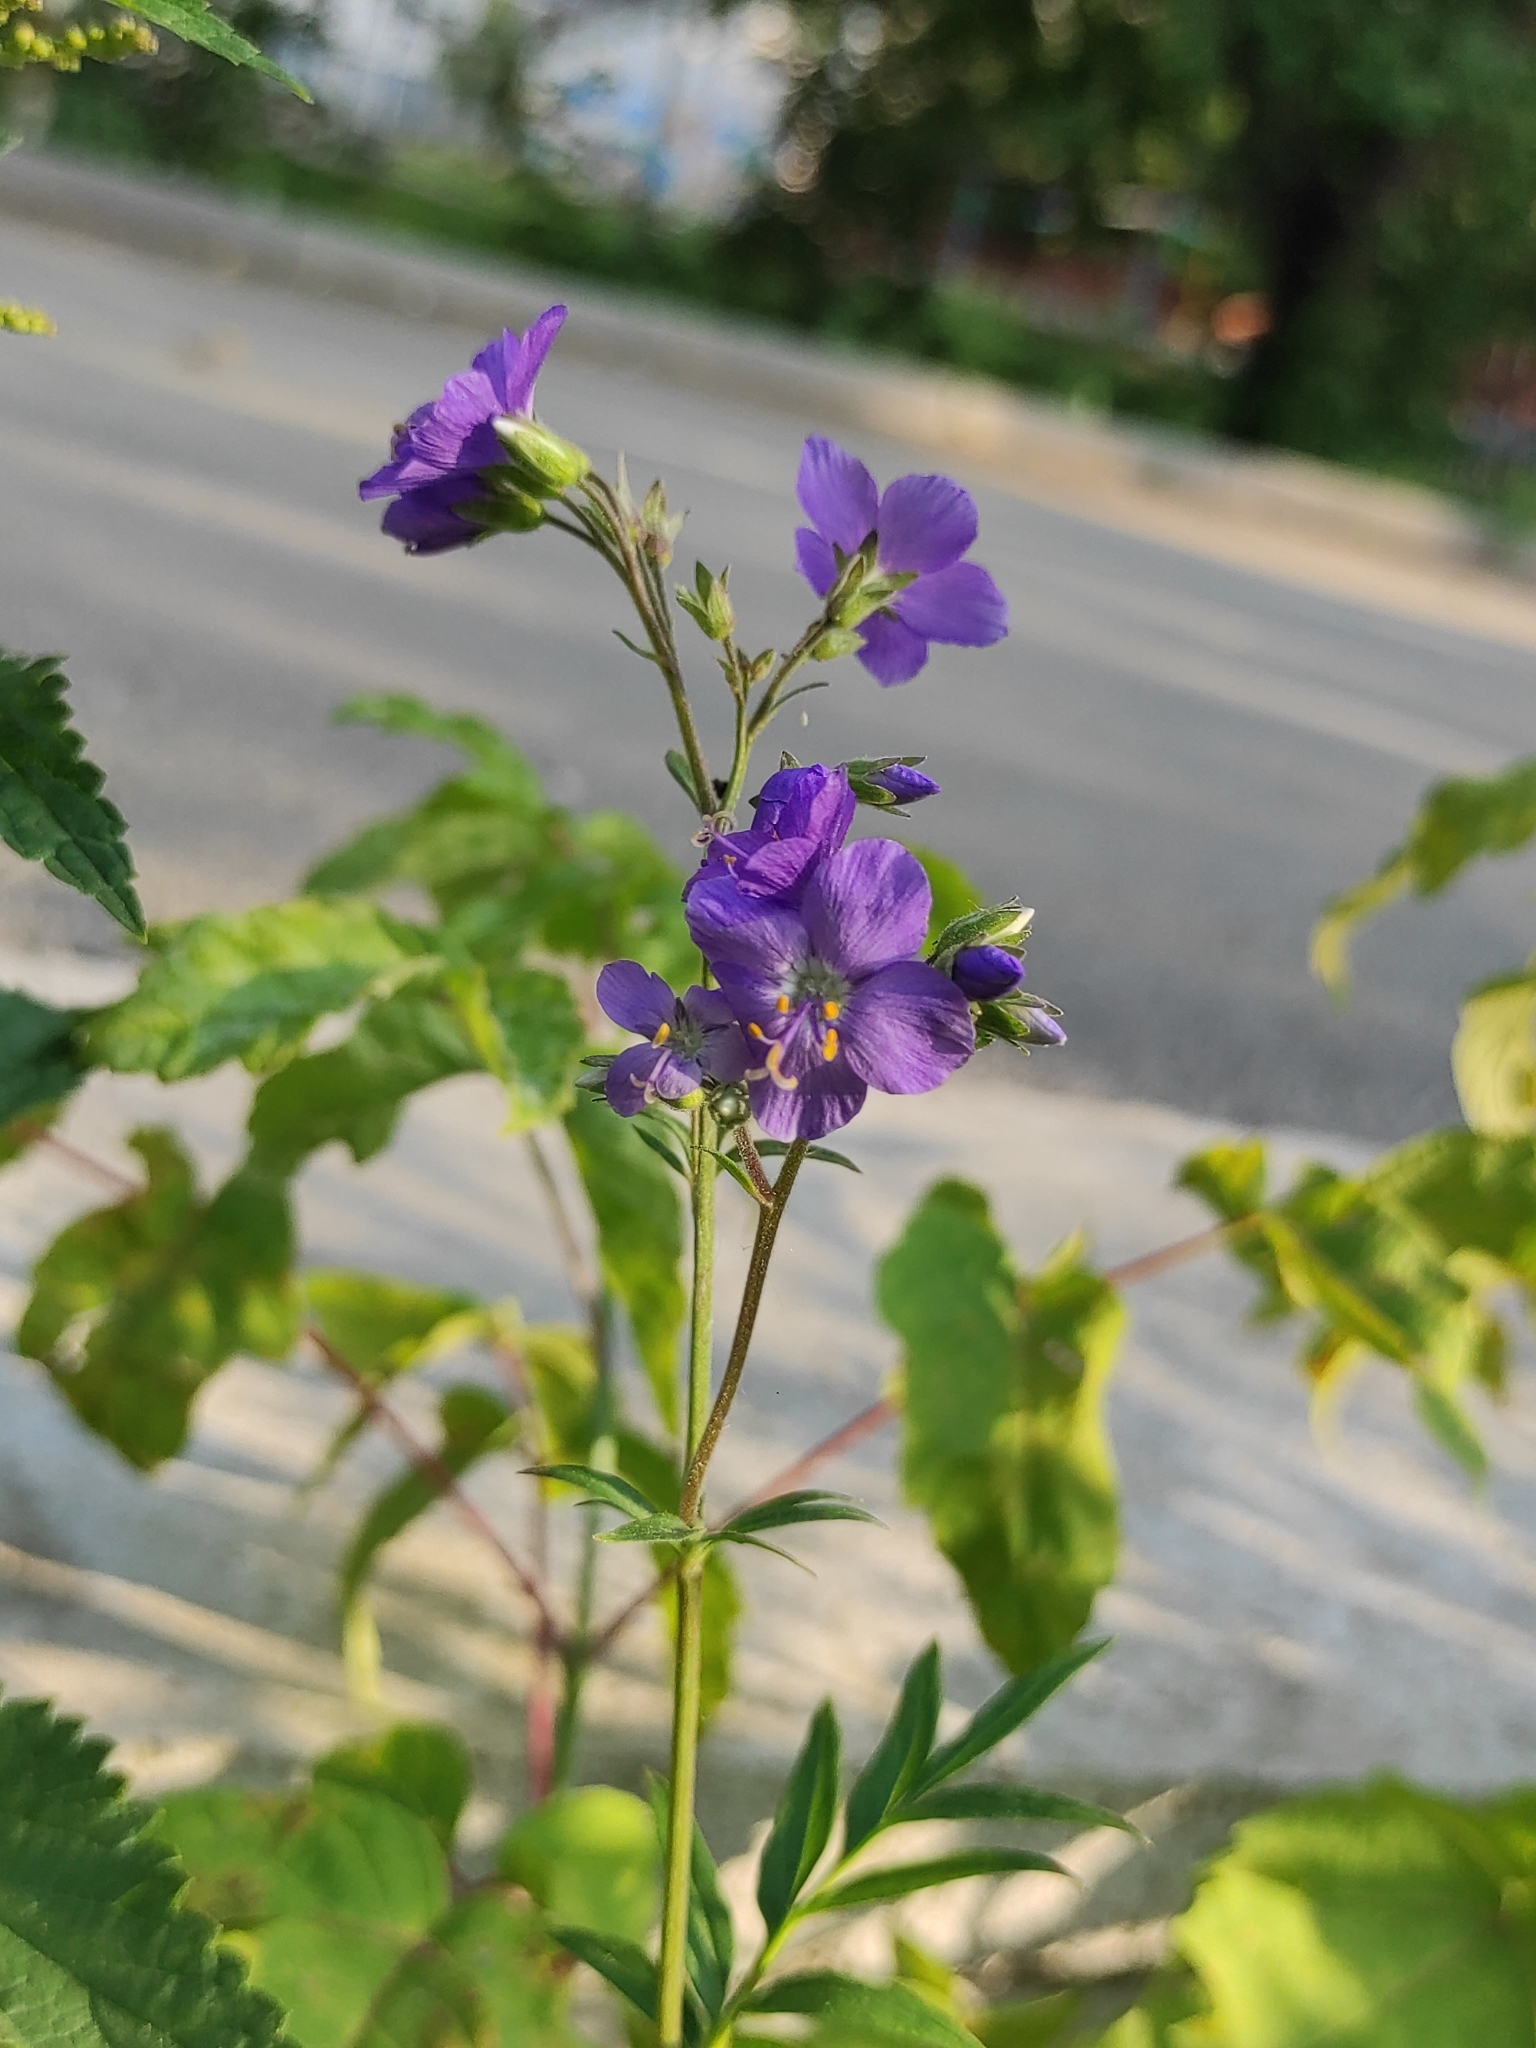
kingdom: Plantae
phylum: Tracheophyta
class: Magnoliopsida
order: Ericales
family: Polemoniaceae
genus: Polemonium
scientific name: Polemonium caeruleum
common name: Jacob's-ladder
